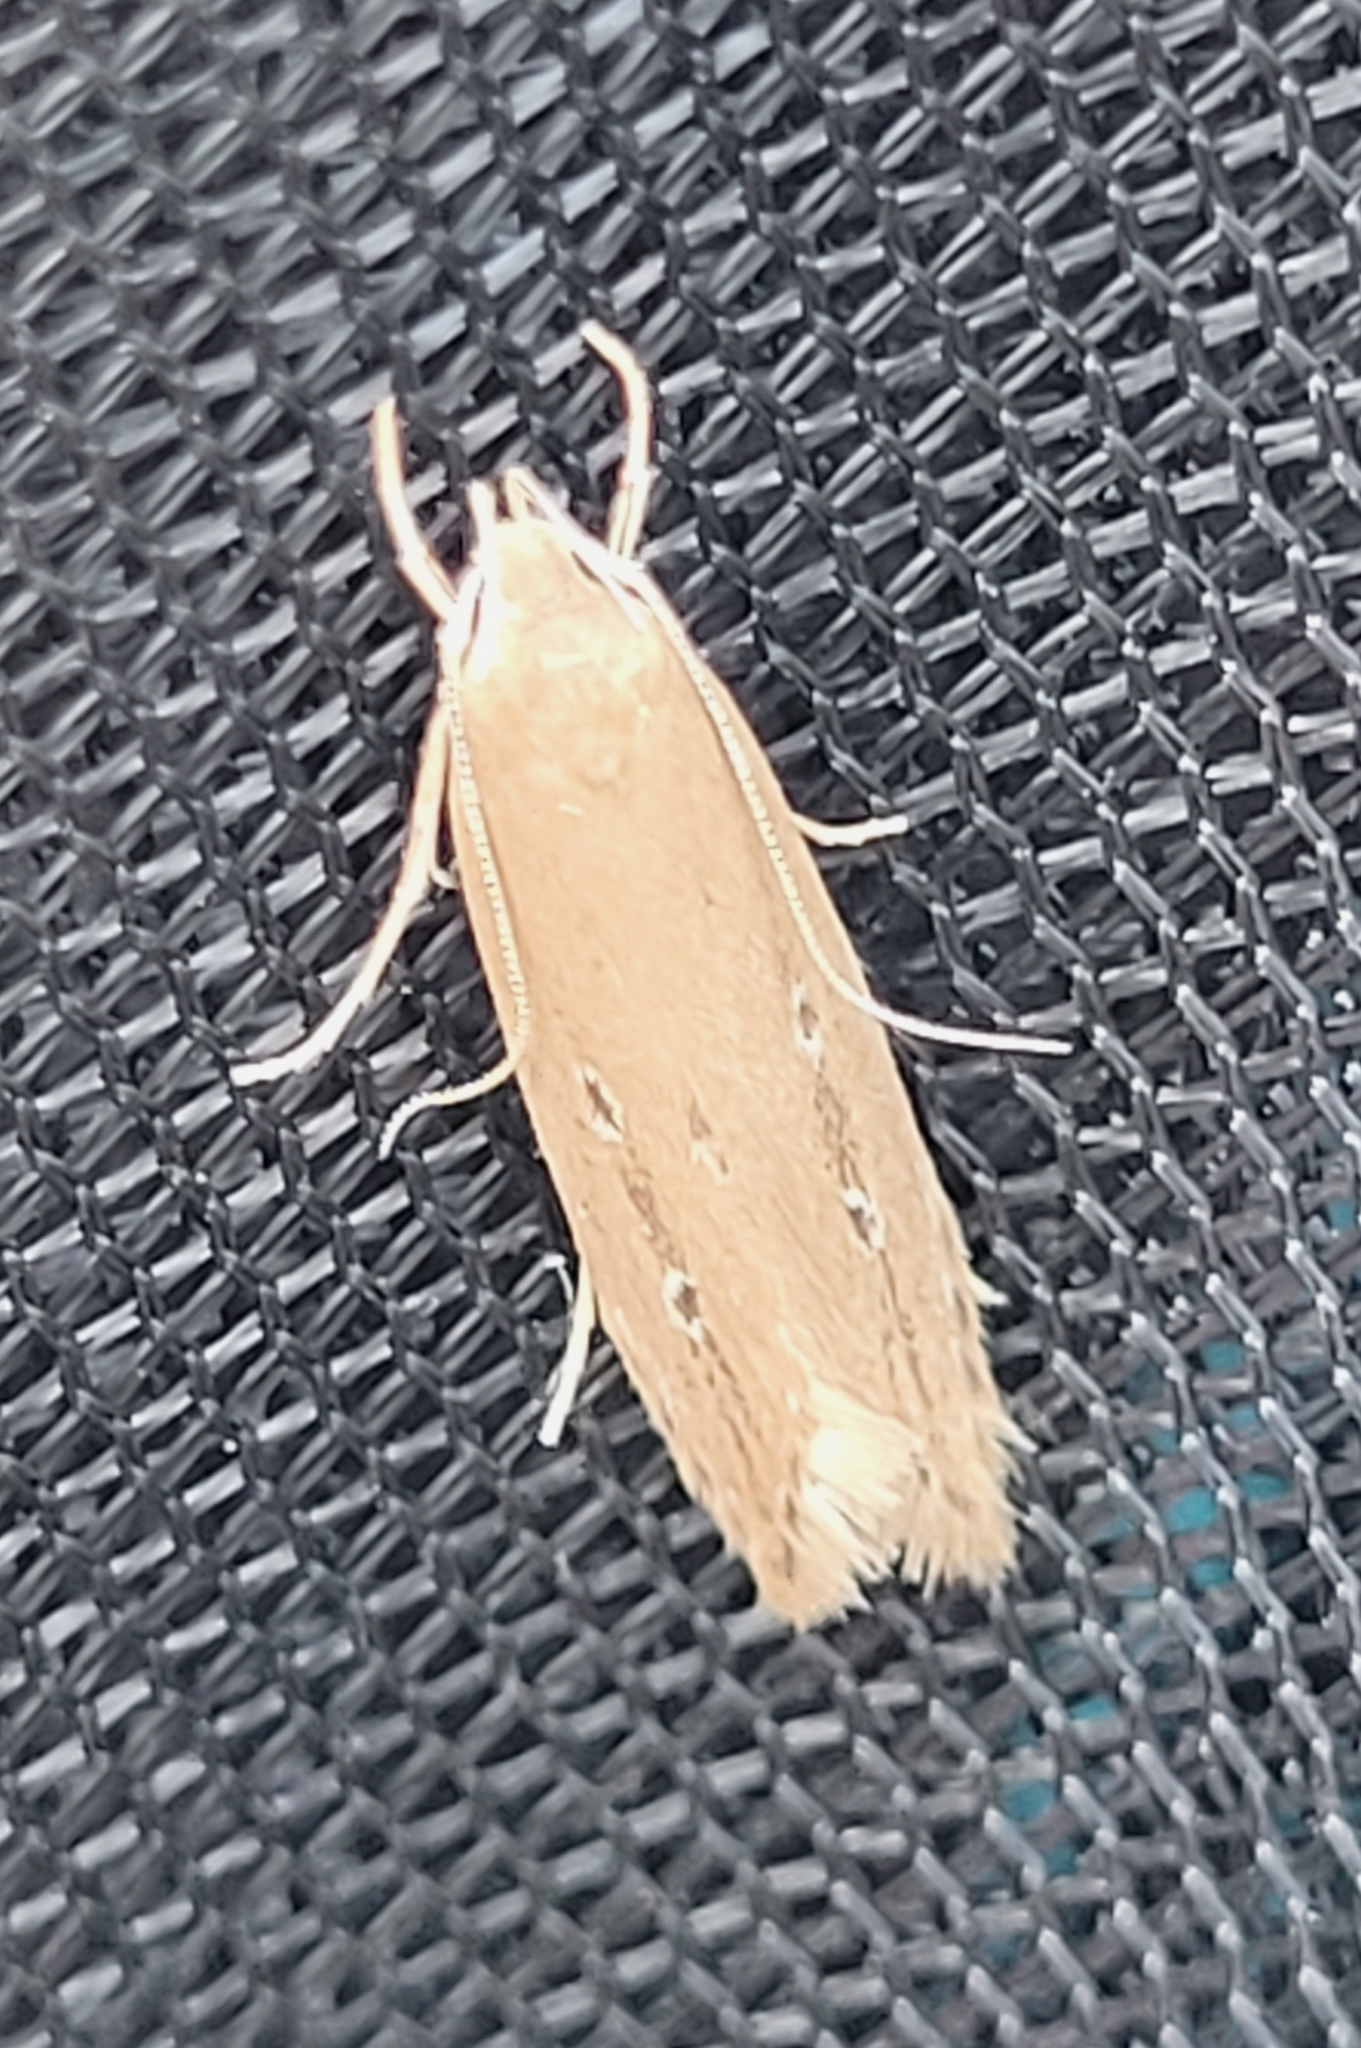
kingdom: Animalia
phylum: Arthropoda
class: Insecta
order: Lepidoptera
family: Cosmopterigidae
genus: Limnaecia
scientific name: Limnaecia phragmitella
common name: Bulrush cosmet
